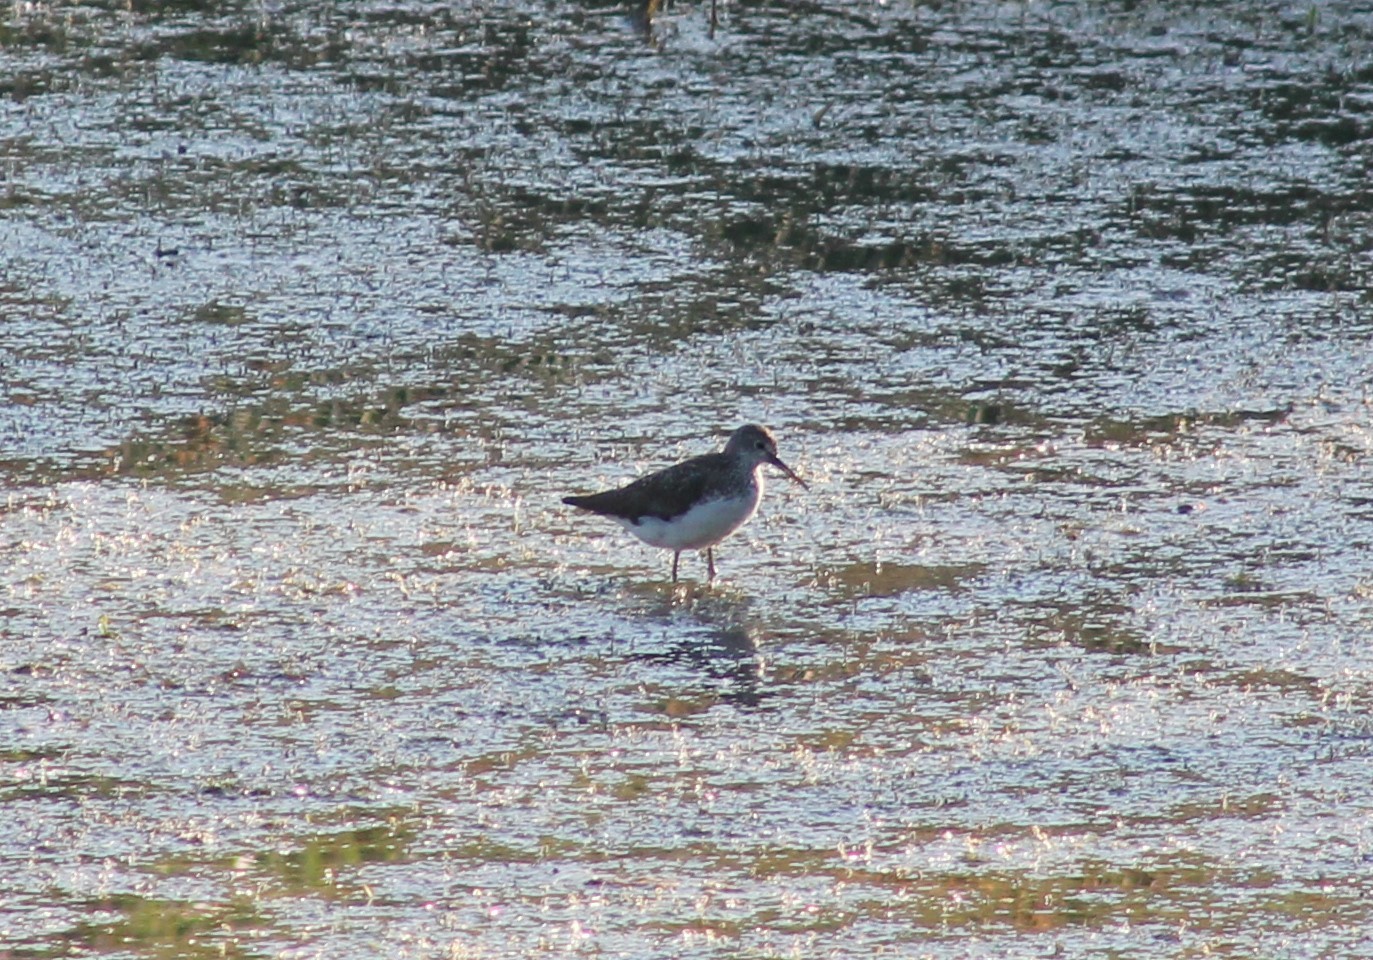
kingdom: Animalia
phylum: Chordata
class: Aves
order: Charadriiformes
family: Scolopacidae
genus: Tringa
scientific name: Tringa ochropus
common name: Green sandpiper
